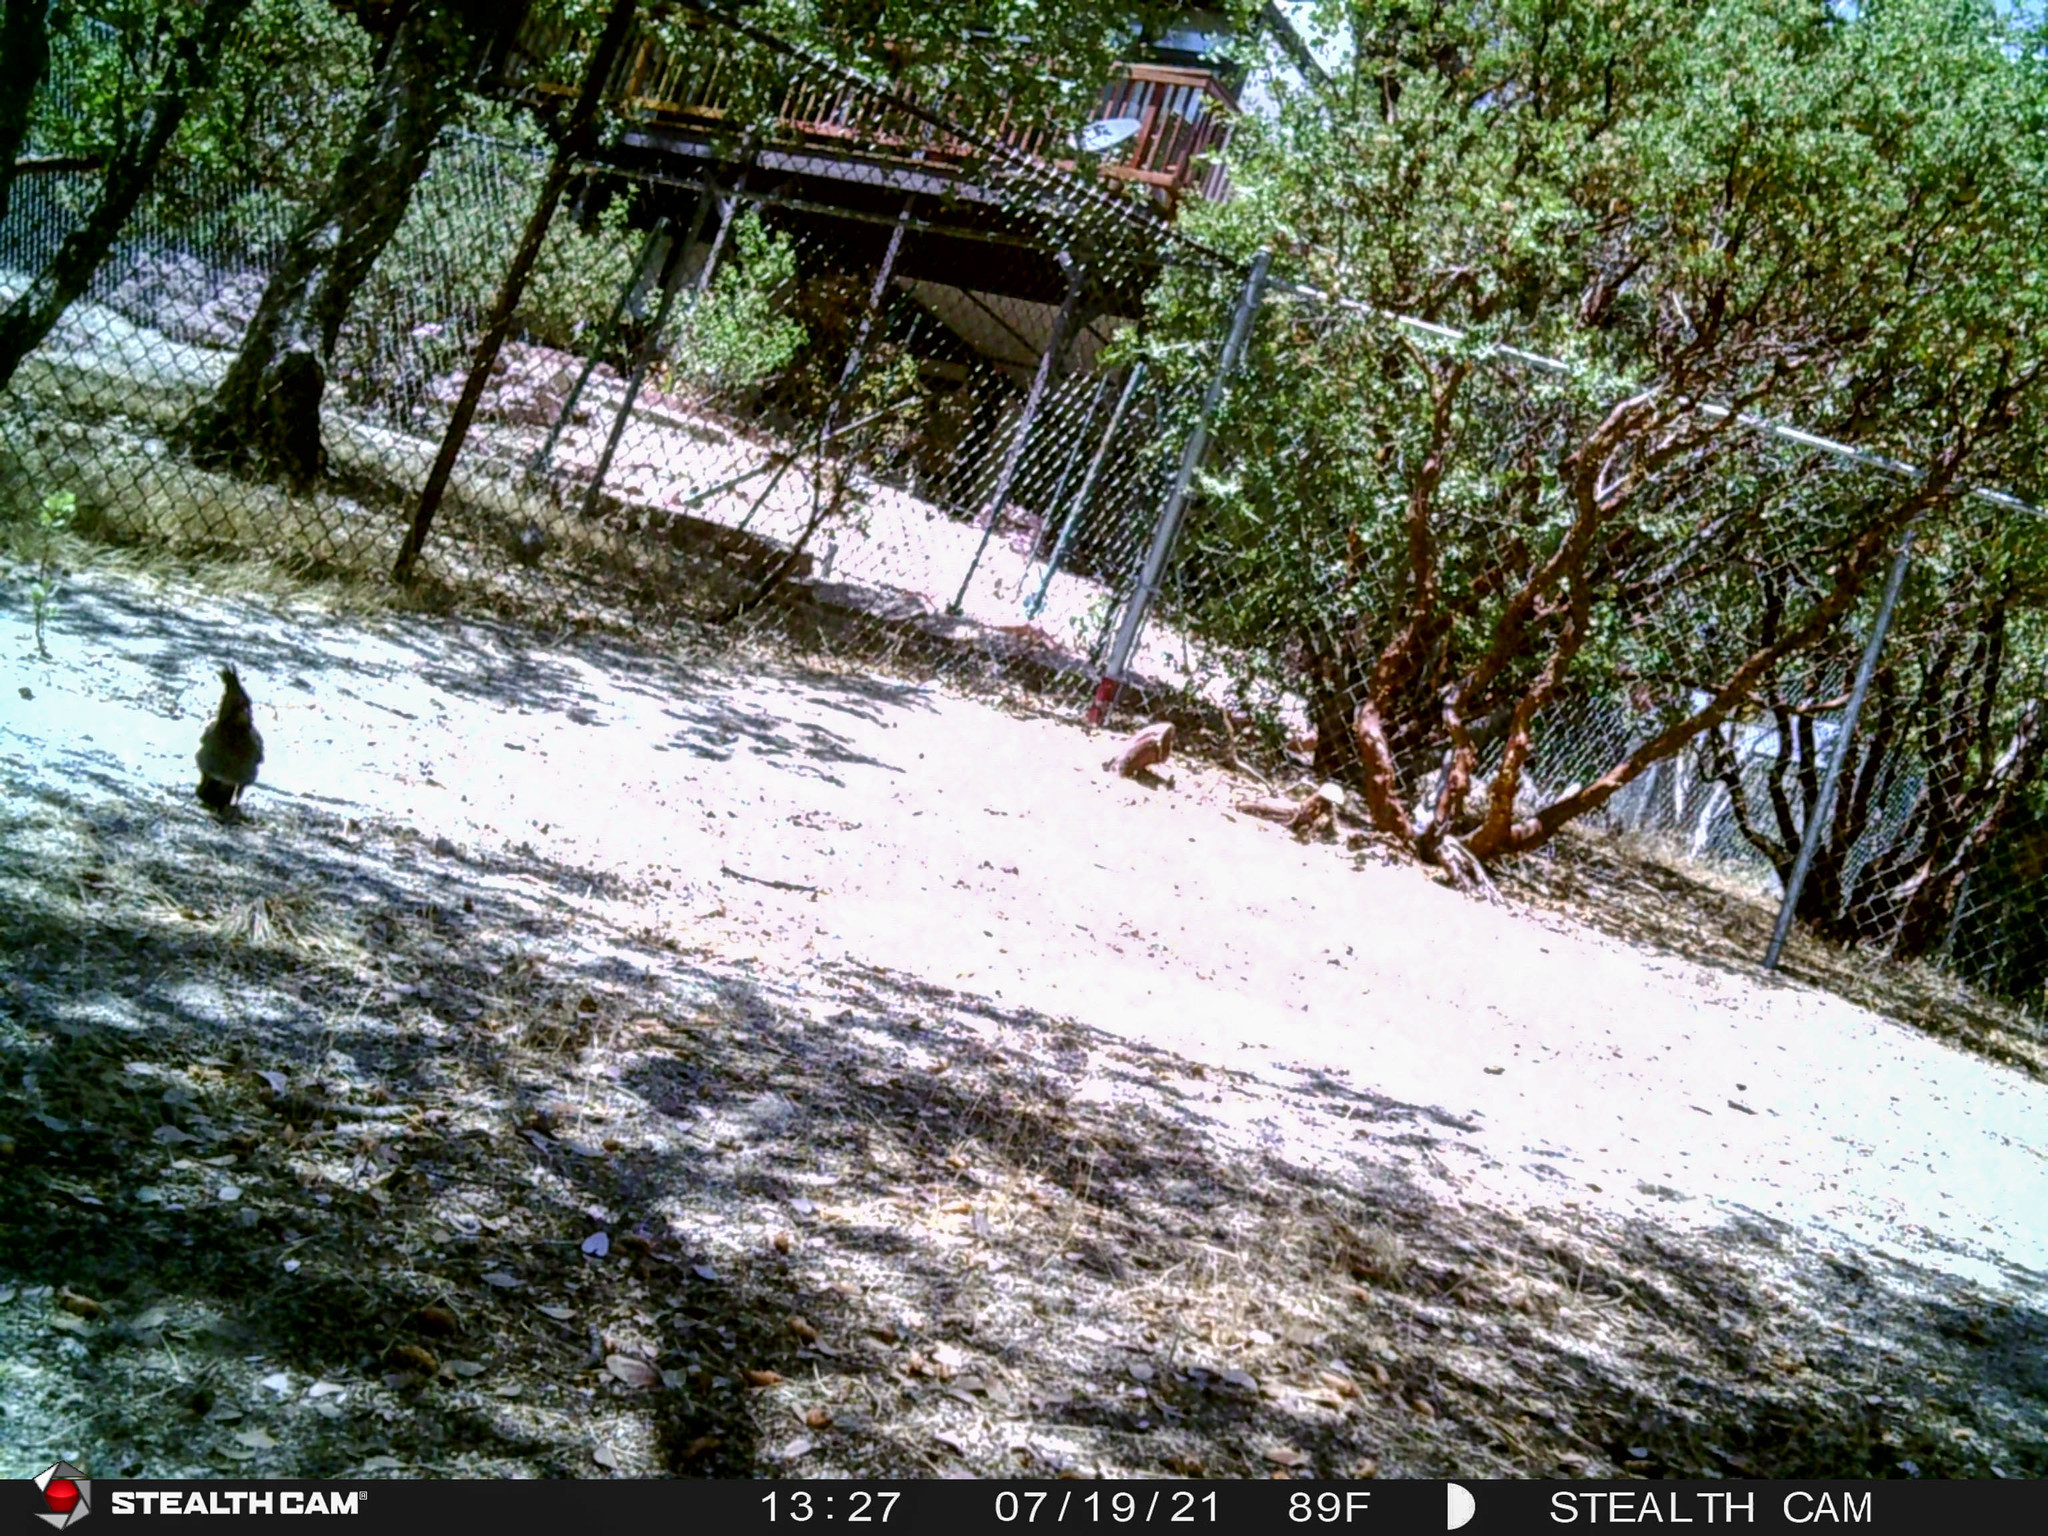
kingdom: Animalia
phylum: Chordata
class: Aves
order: Passeriformes
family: Corvidae
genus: Cyanocitta
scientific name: Cyanocitta stelleri
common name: Steller's jay
